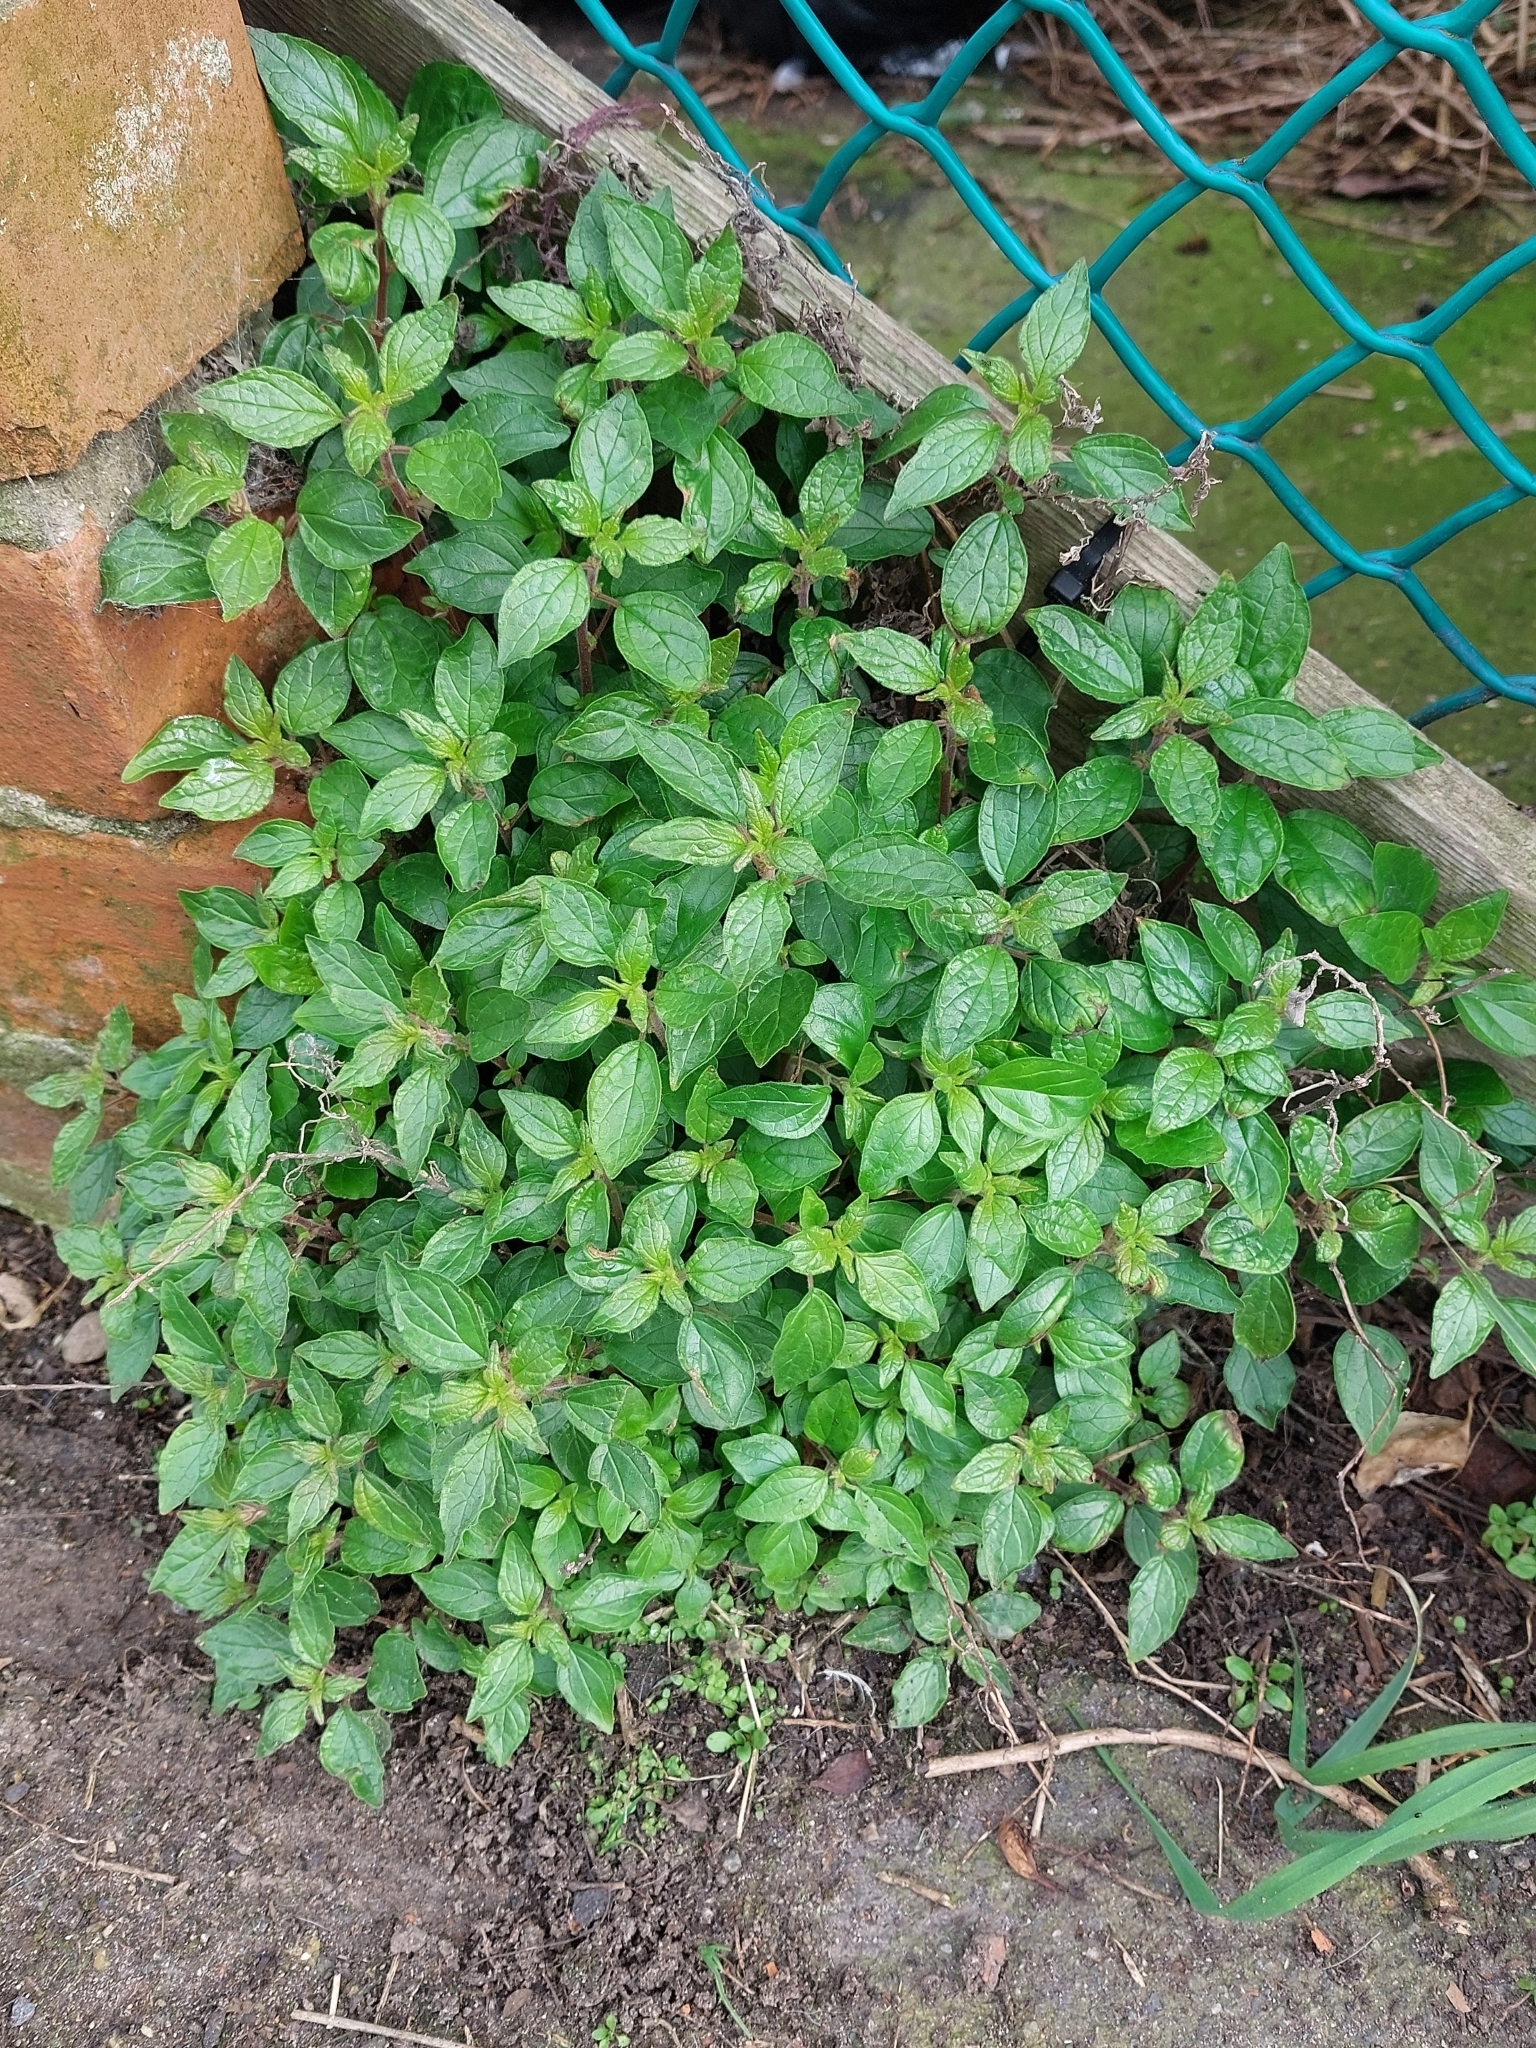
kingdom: Plantae
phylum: Tracheophyta
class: Magnoliopsida
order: Rosales
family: Urticaceae
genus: Parietaria
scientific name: Parietaria judaica
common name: Pellitory-of-the-wall
